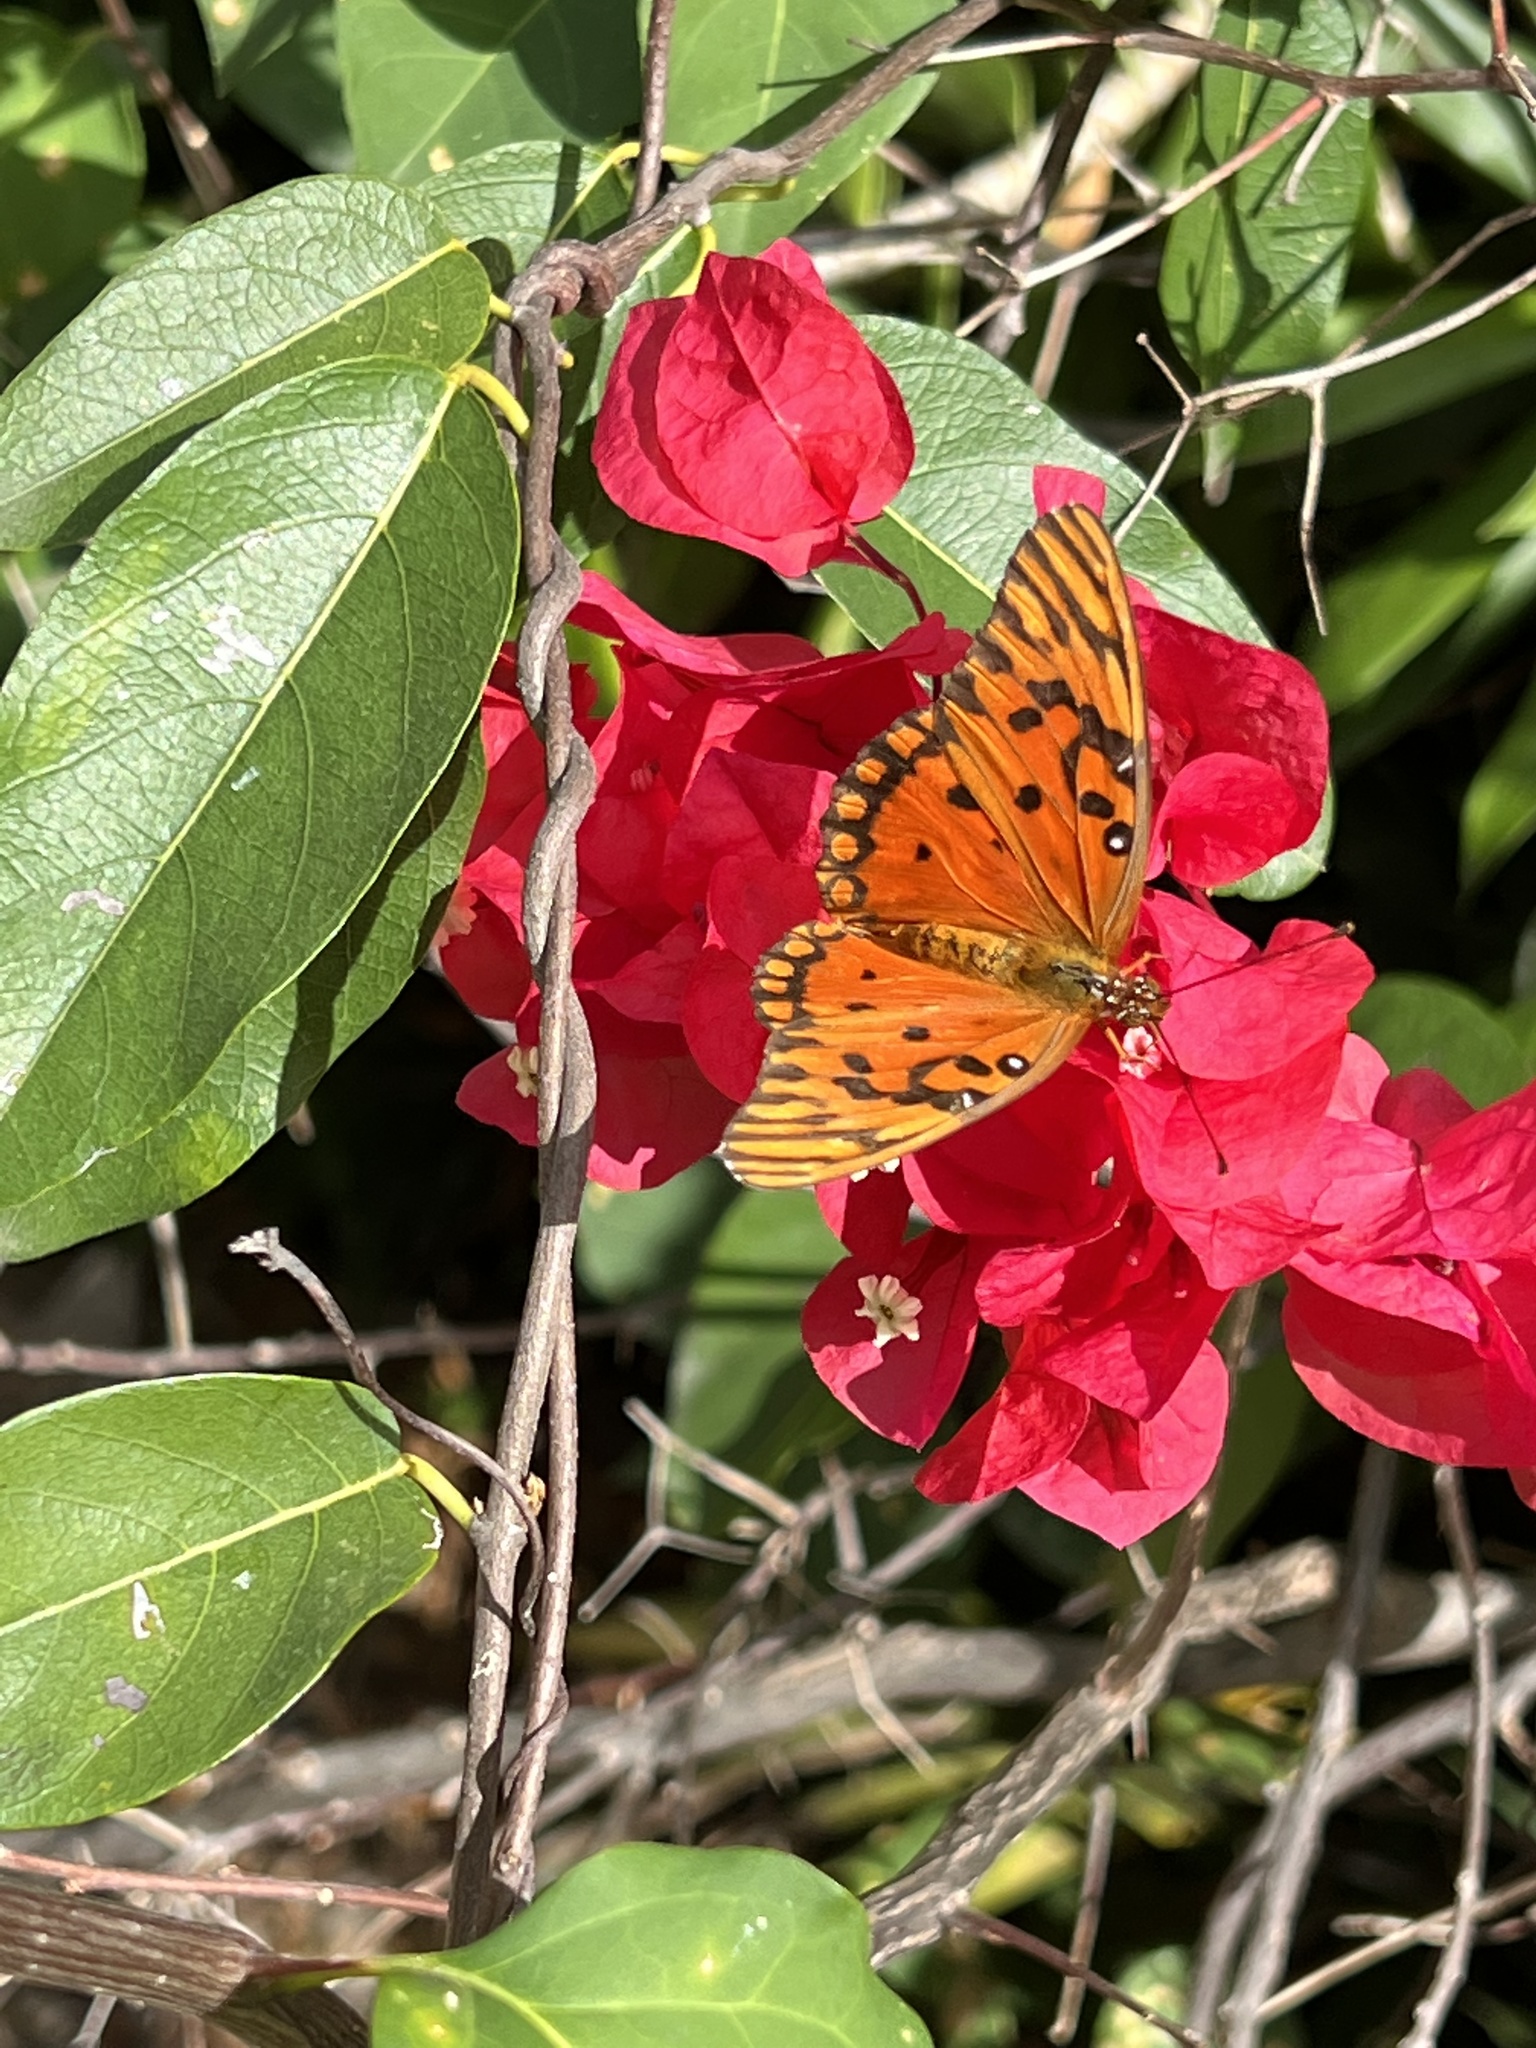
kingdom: Animalia
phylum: Arthropoda
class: Insecta
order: Lepidoptera
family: Nymphalidae
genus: Dione
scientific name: Dione vanillae
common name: Gulf fritillary
